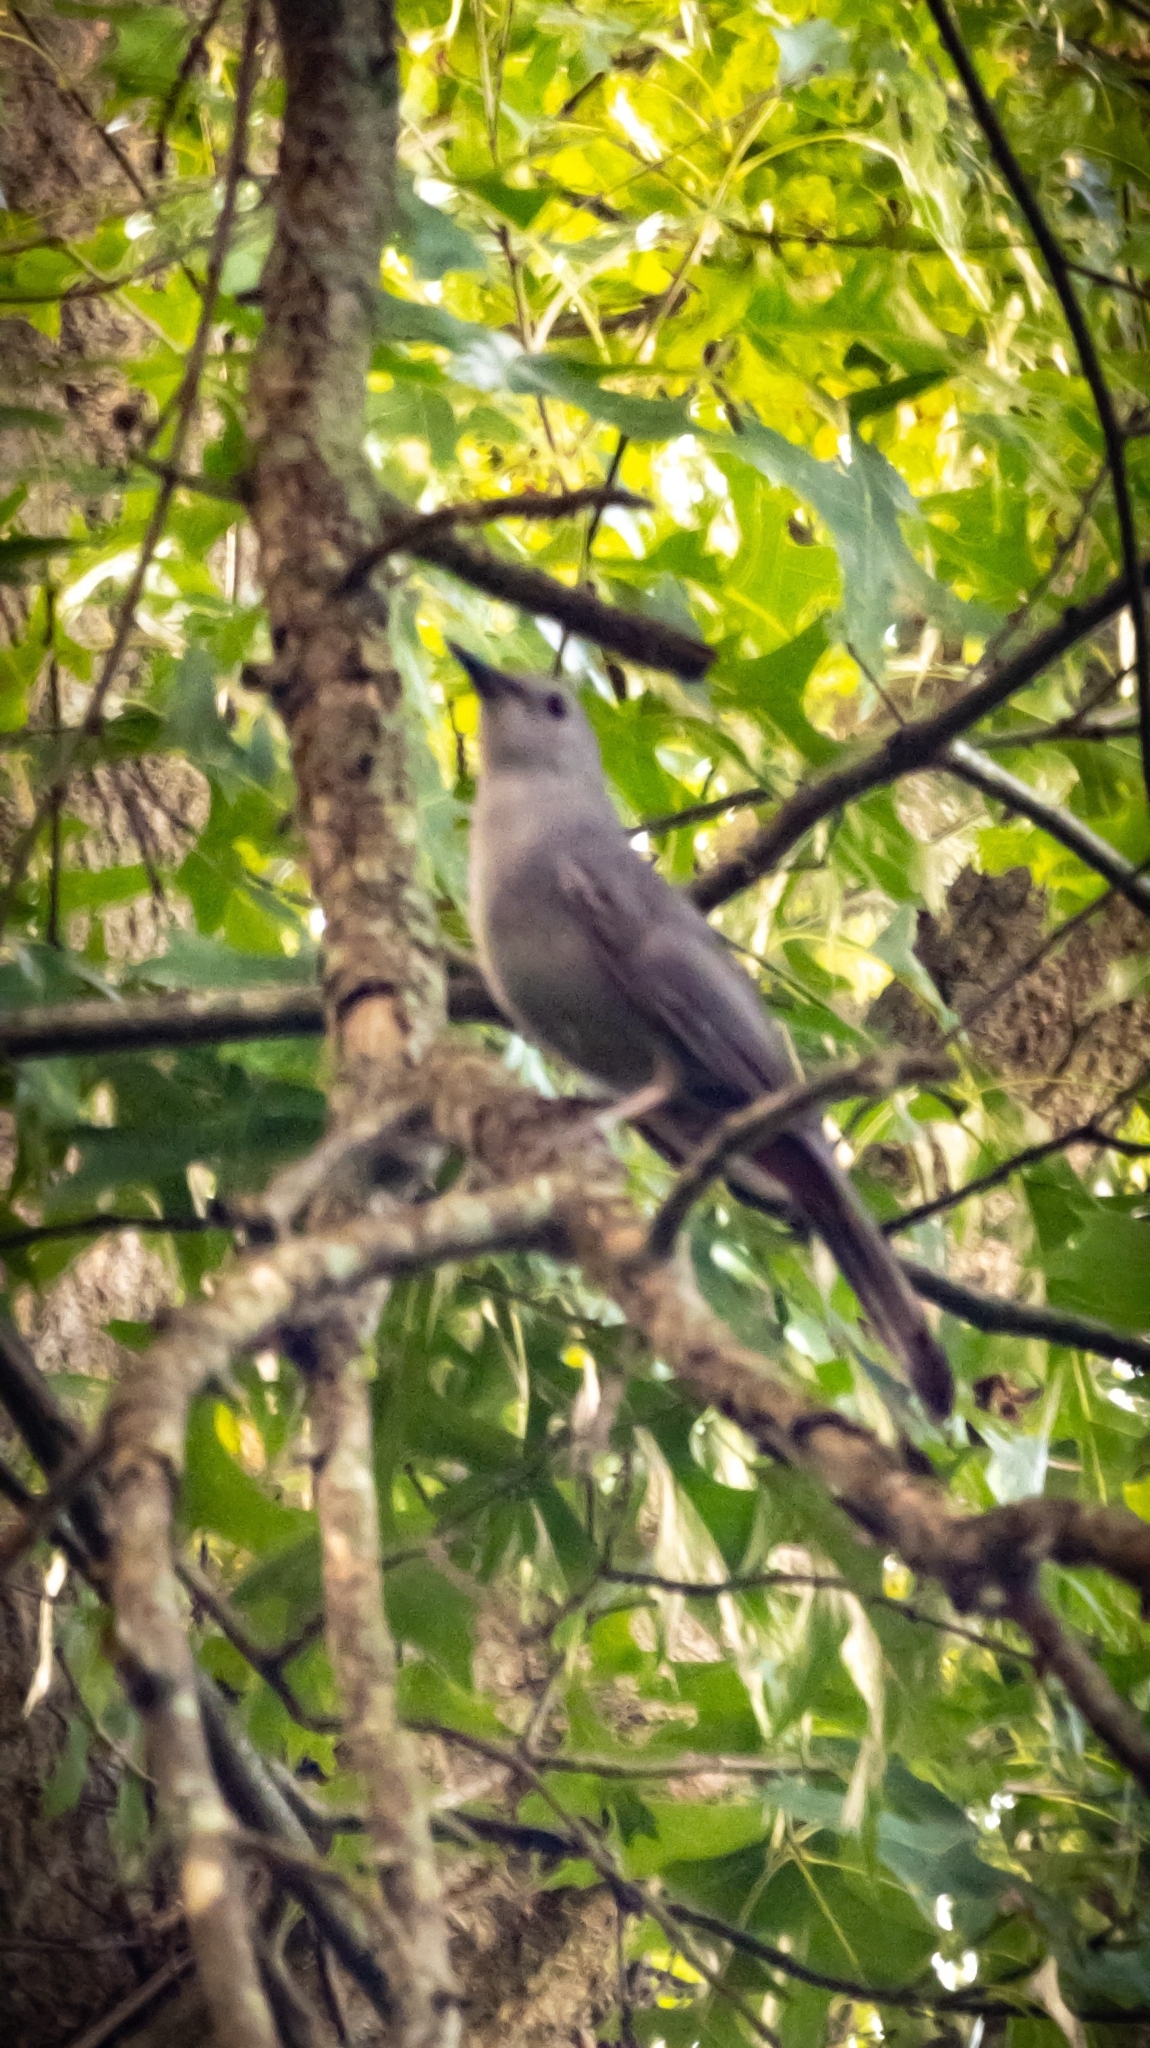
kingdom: Animalia
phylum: Chordata
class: Aves
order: Passeriformes
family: Mimidae
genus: Dumetella
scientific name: Dumetella carolinensis
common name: Gray catbird
